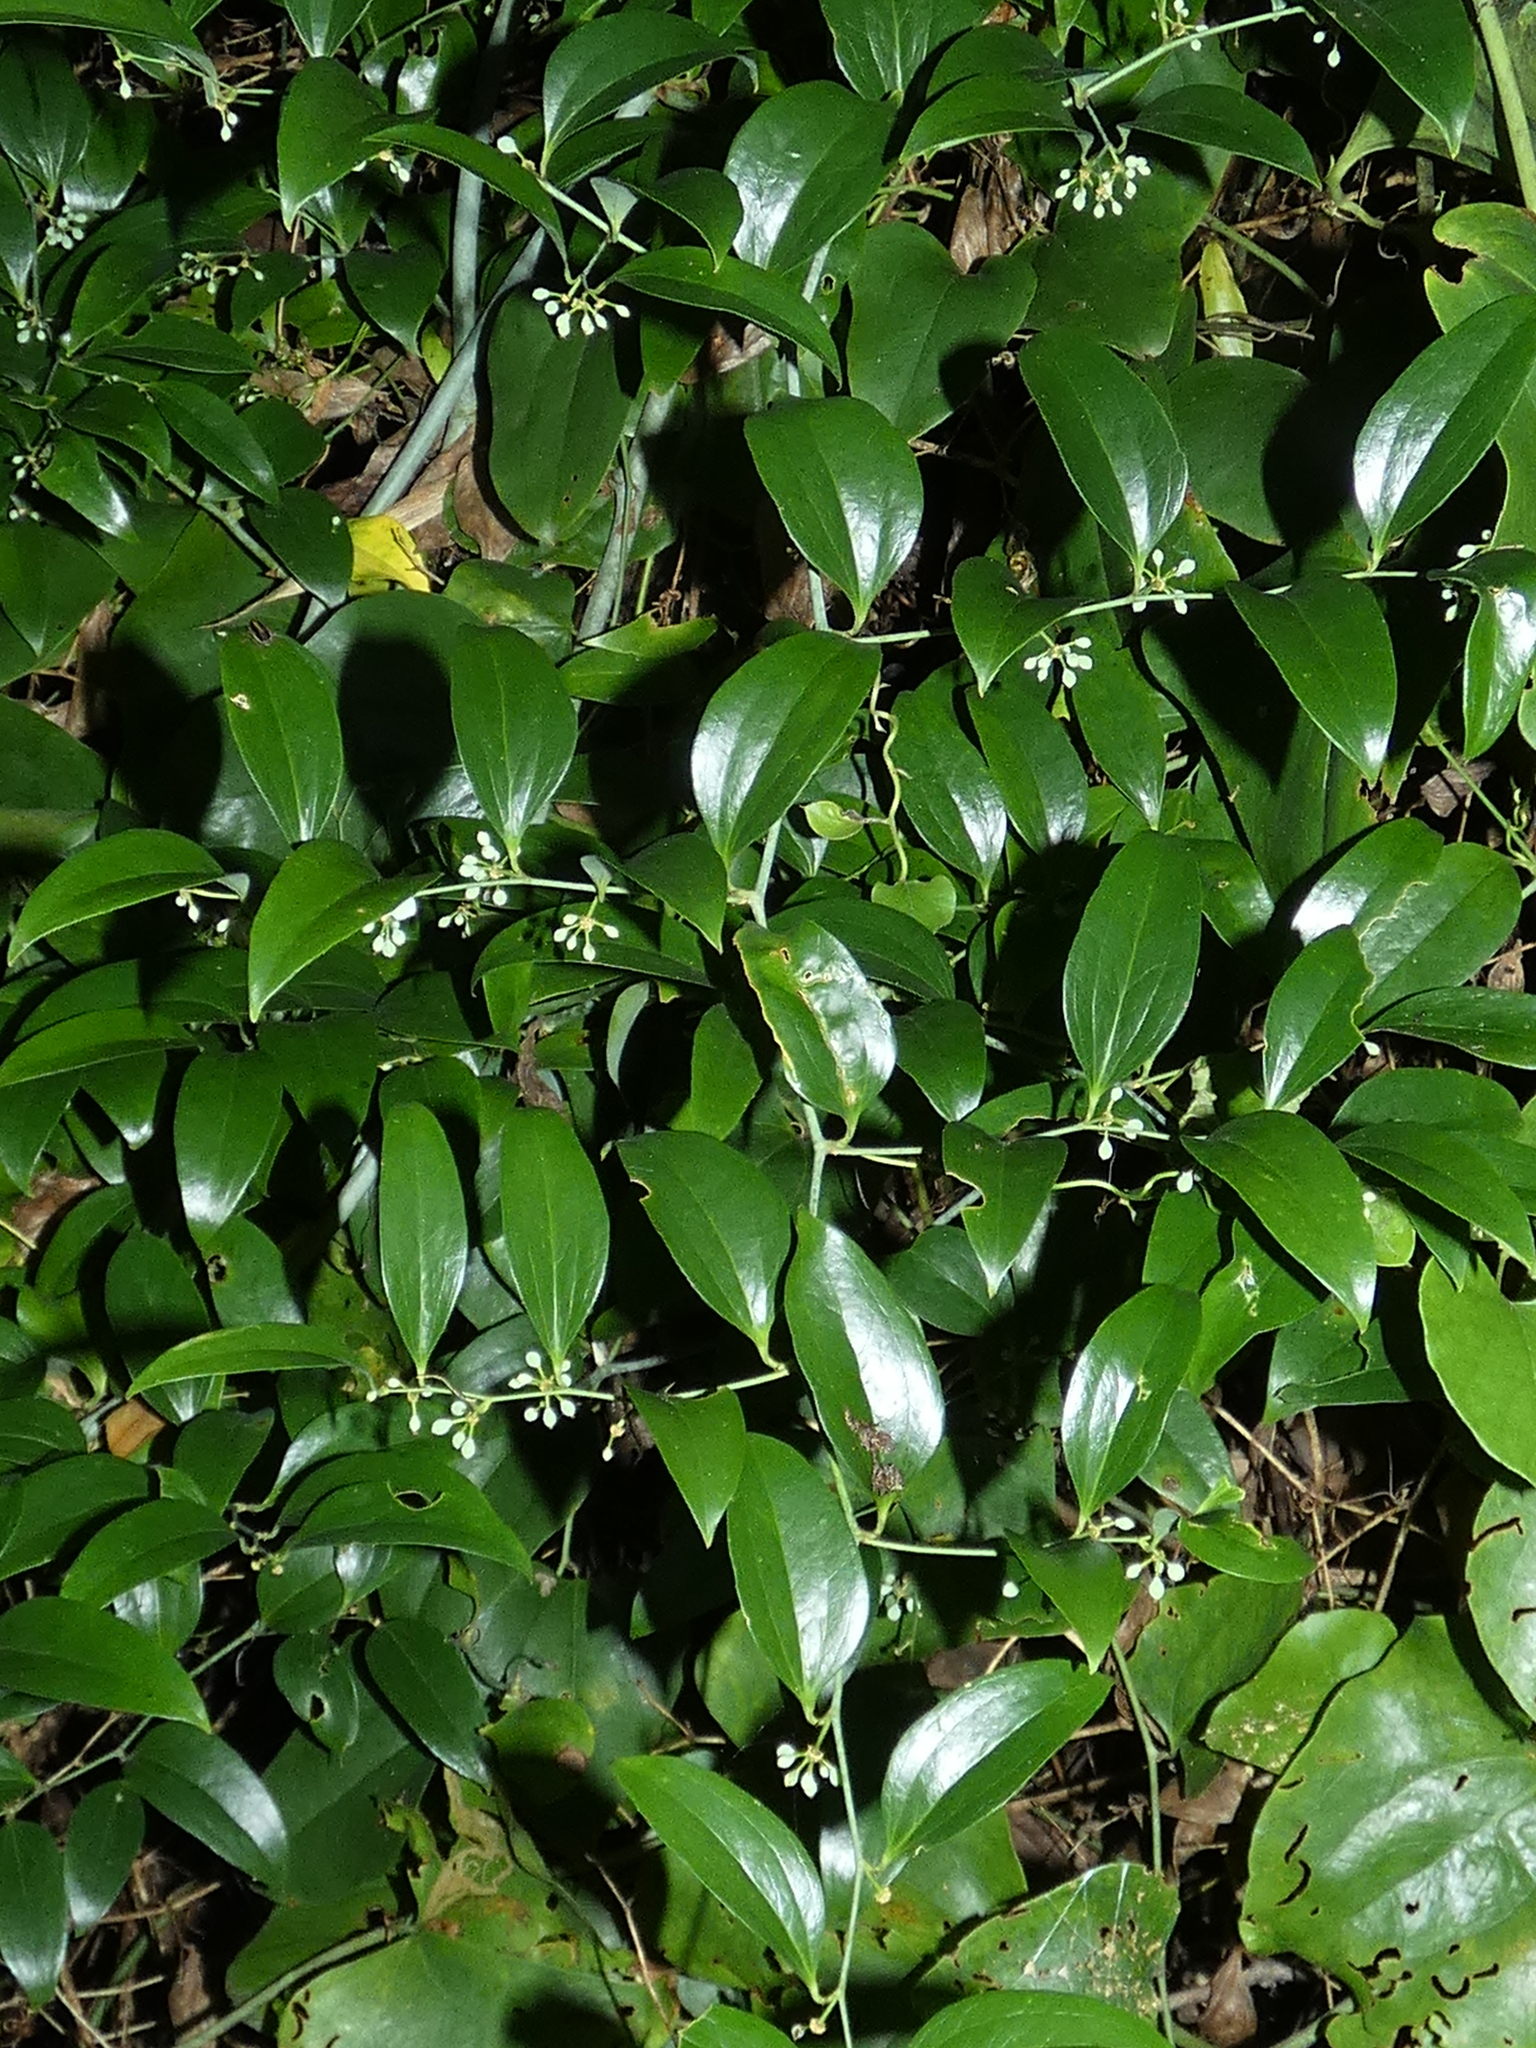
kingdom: Plantae
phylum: Tracheophyta
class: Liliopsida
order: Liliales
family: Smilacaceae
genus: Smilax
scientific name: Smilax maritima
